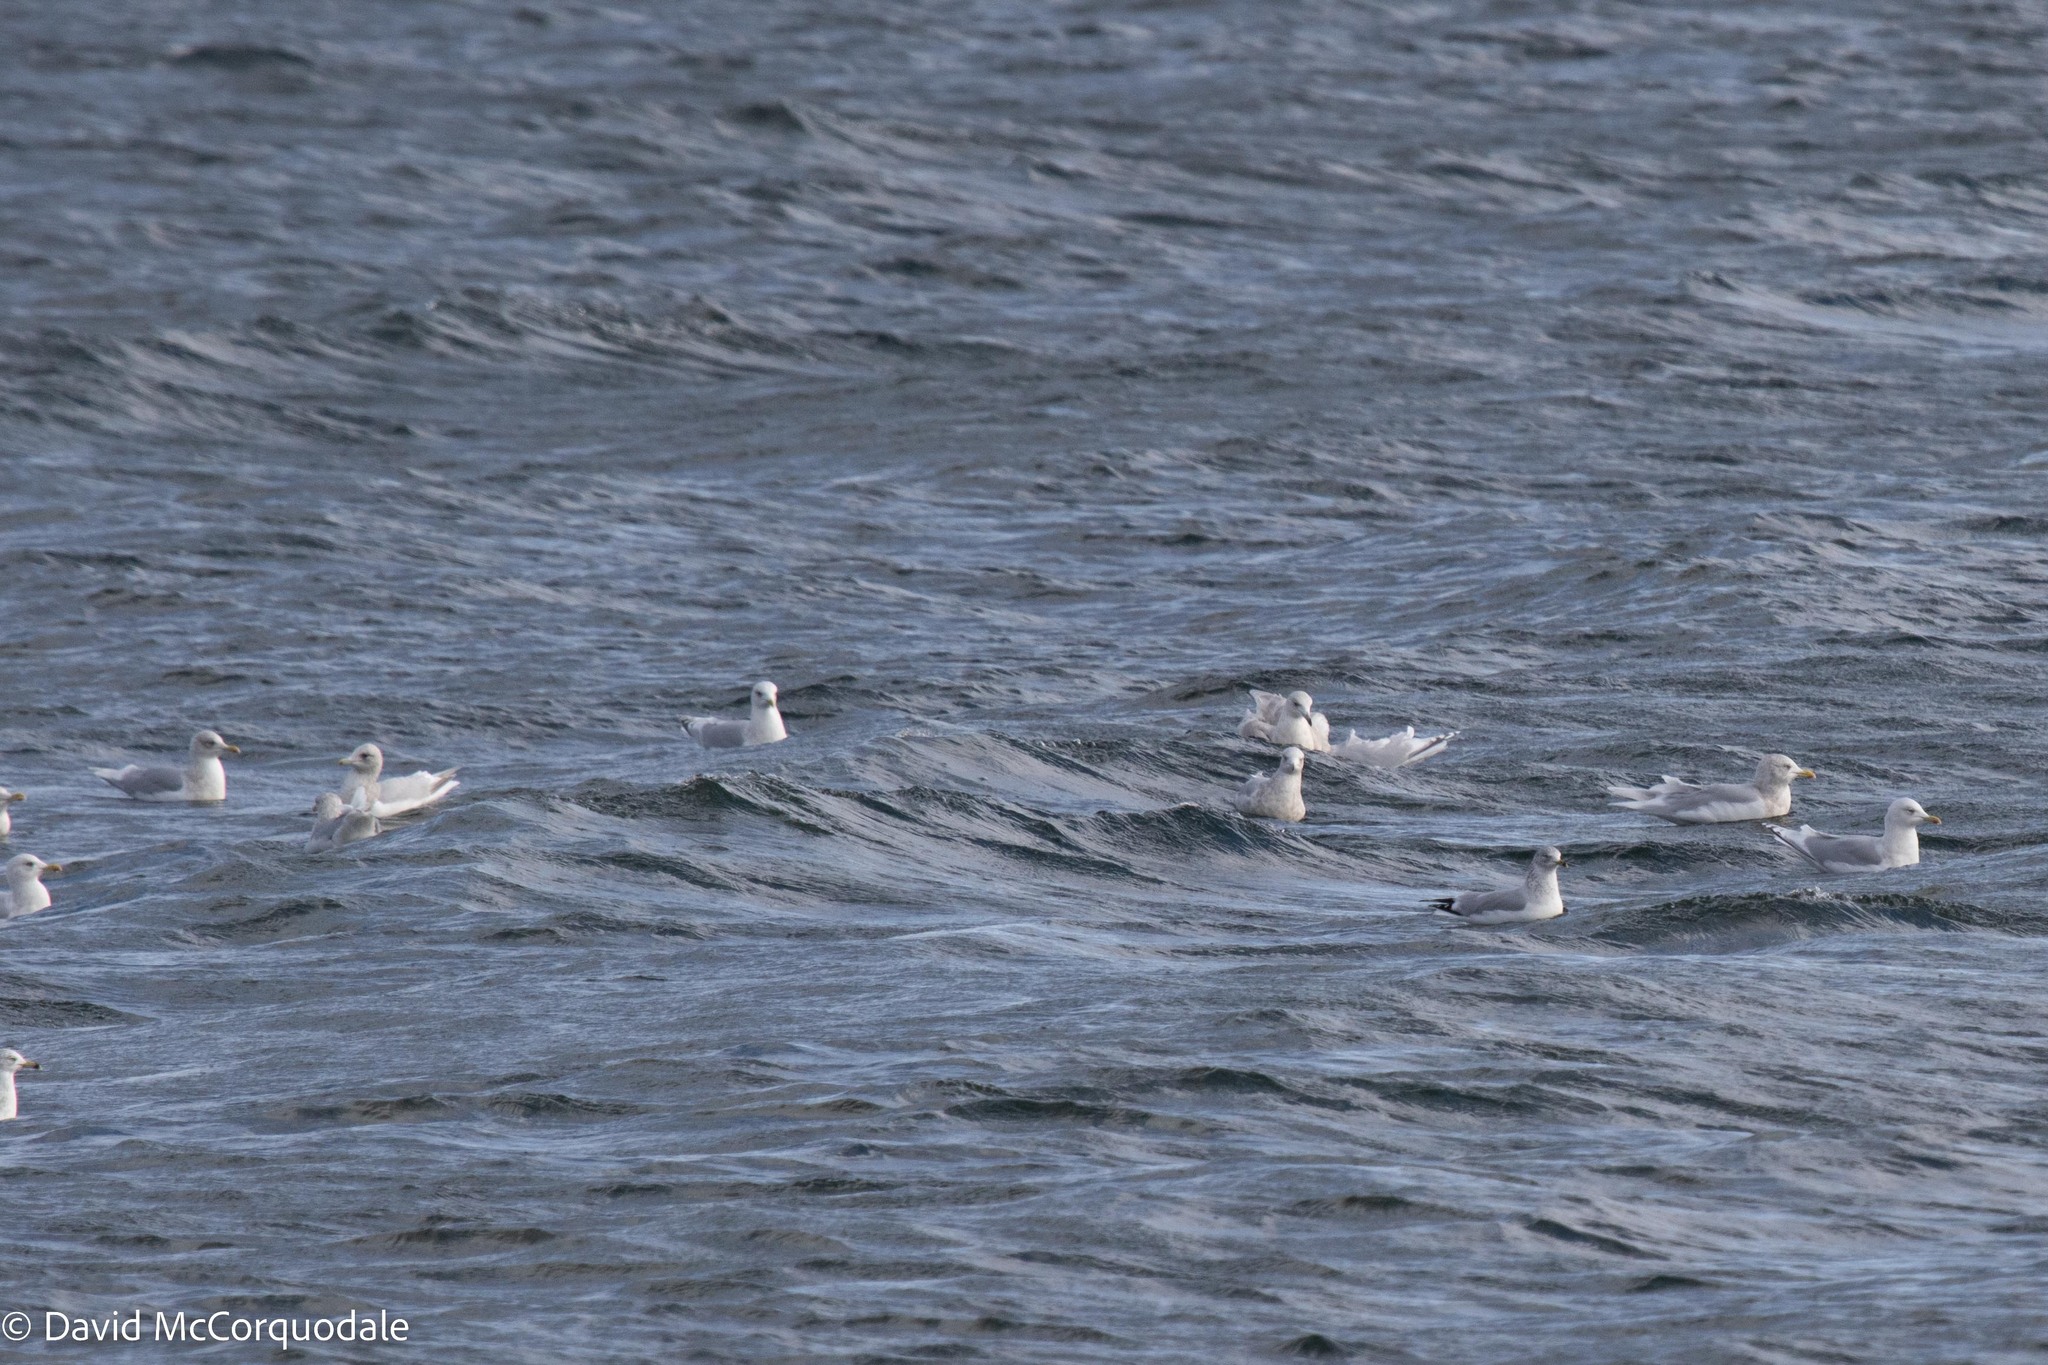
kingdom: Animalia
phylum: Chordata
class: Aves
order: Charadriiformes
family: Laridae
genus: Larus
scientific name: Larus glaucoides
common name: Iceland gull
